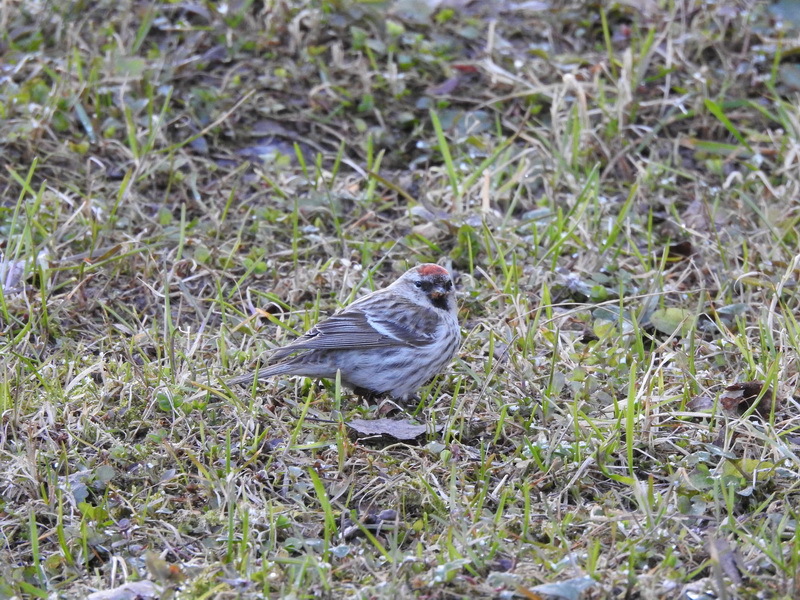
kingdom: Animalia
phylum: Chordata
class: Aves
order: Passeriformes
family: Fringillidae
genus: Acanthis
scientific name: Acanthis flammea
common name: Common redpoll
